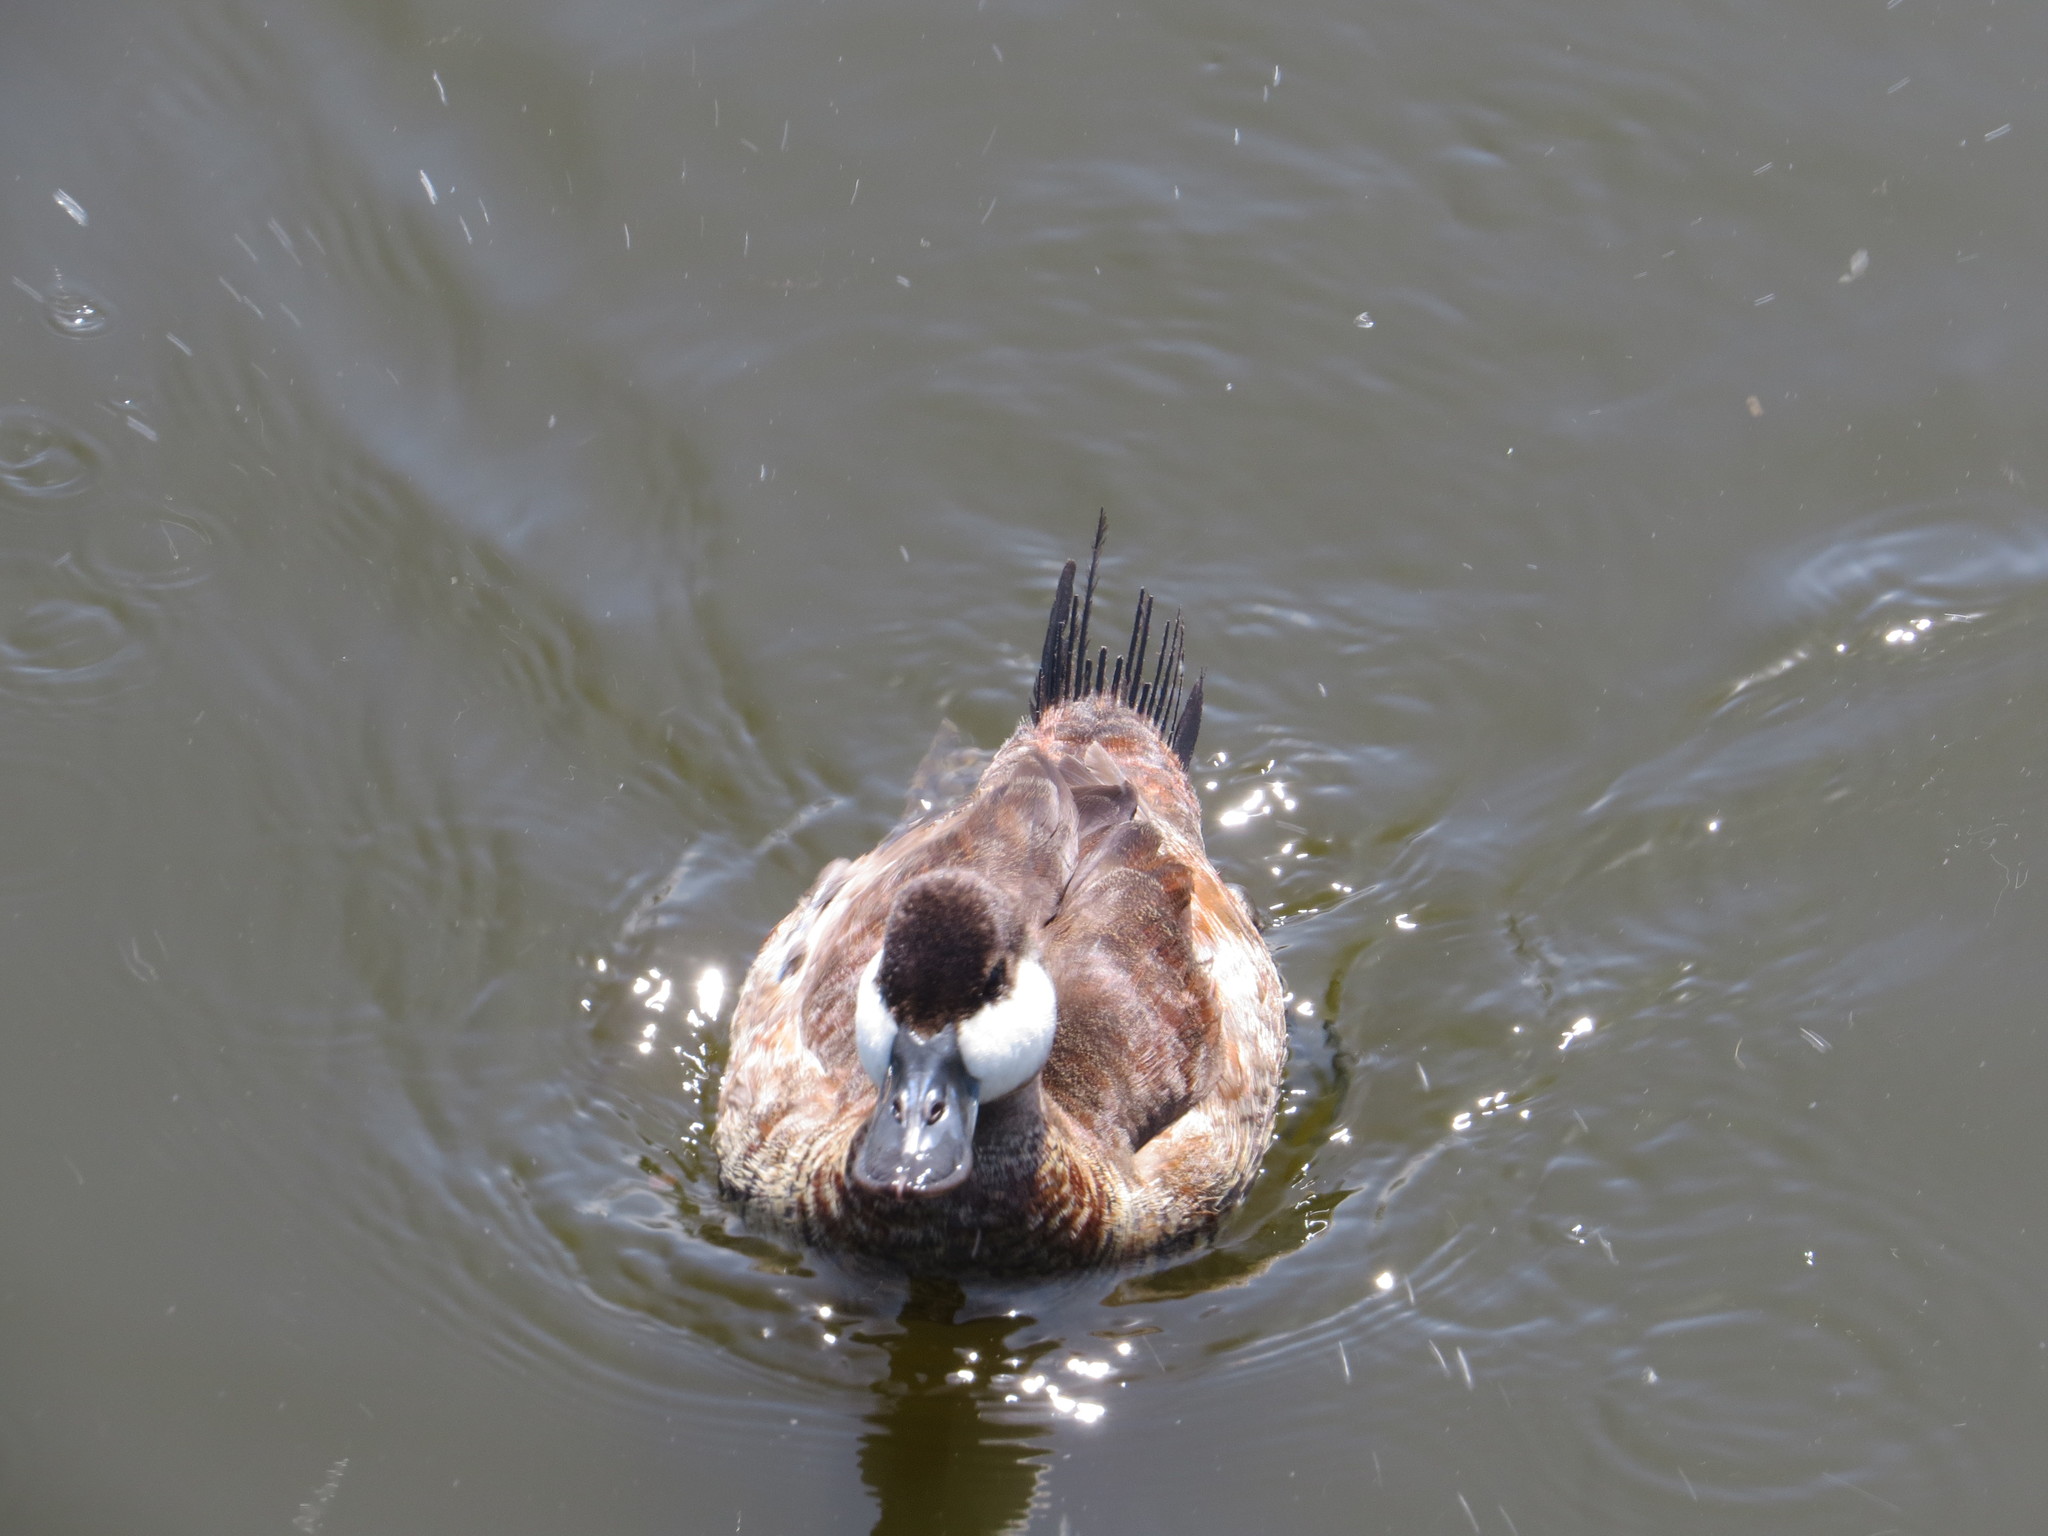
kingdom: Animalia
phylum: Chordata
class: Aves
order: Anseriformes
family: Anatidae
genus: Oxyura
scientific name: Oxyura jamaicensis
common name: Ruddy duck
